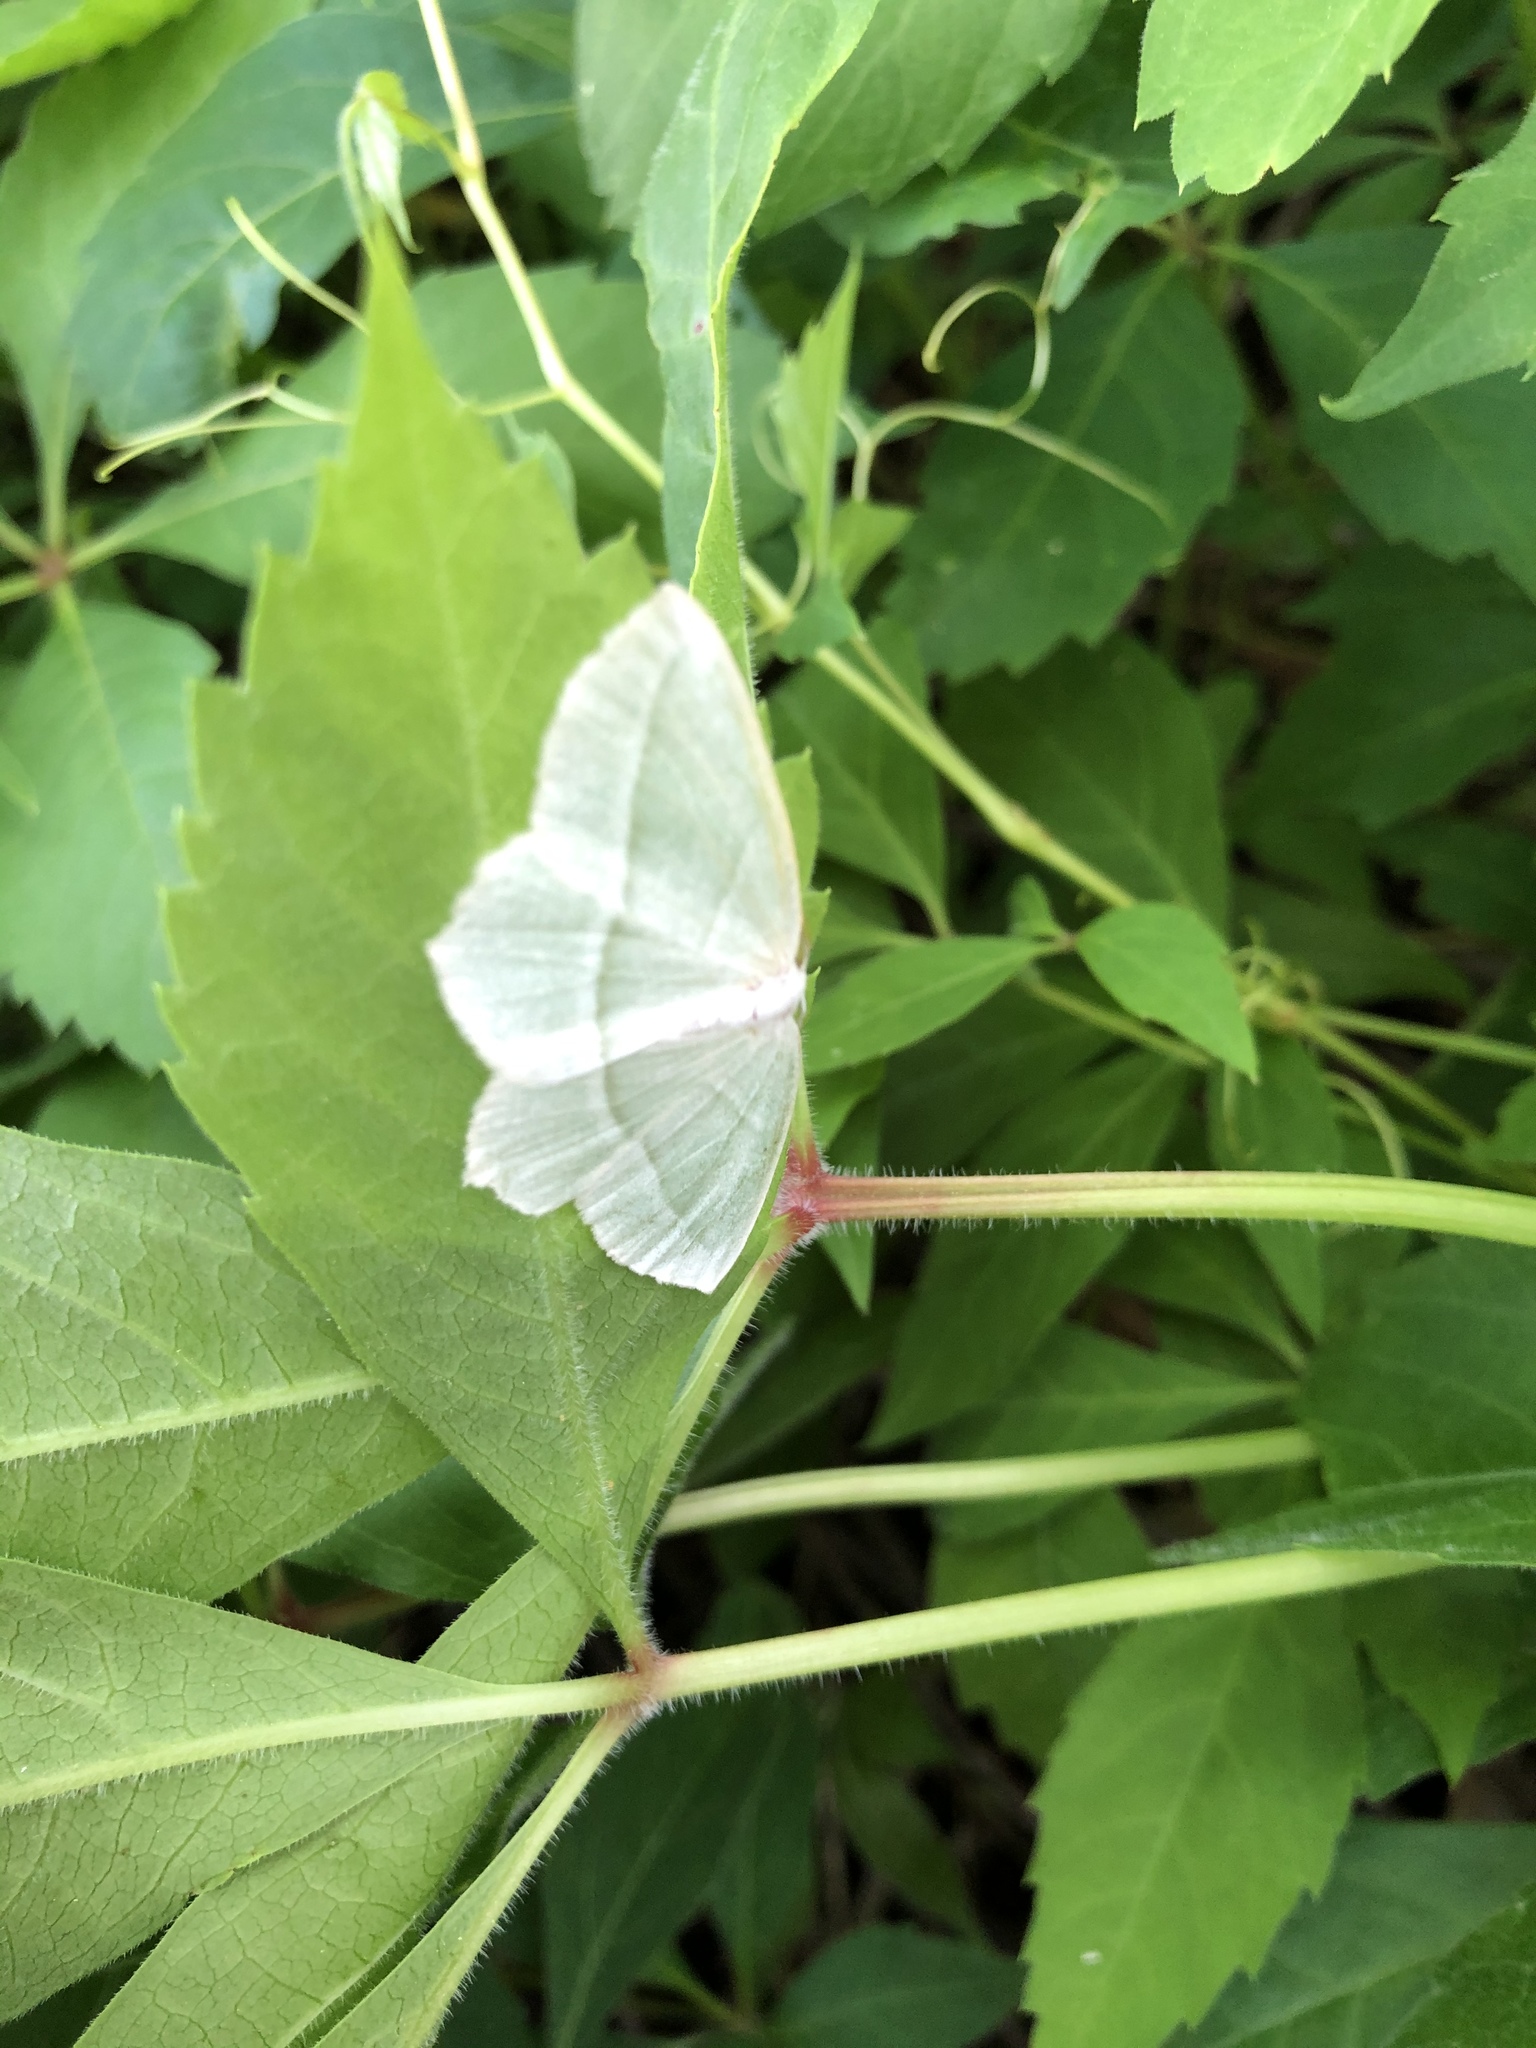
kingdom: Animalia
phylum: Arthropoda
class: Insecta
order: Lepidoptera
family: Geometridae
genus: Campaea
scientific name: Campaea perlata
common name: Fringed looper
